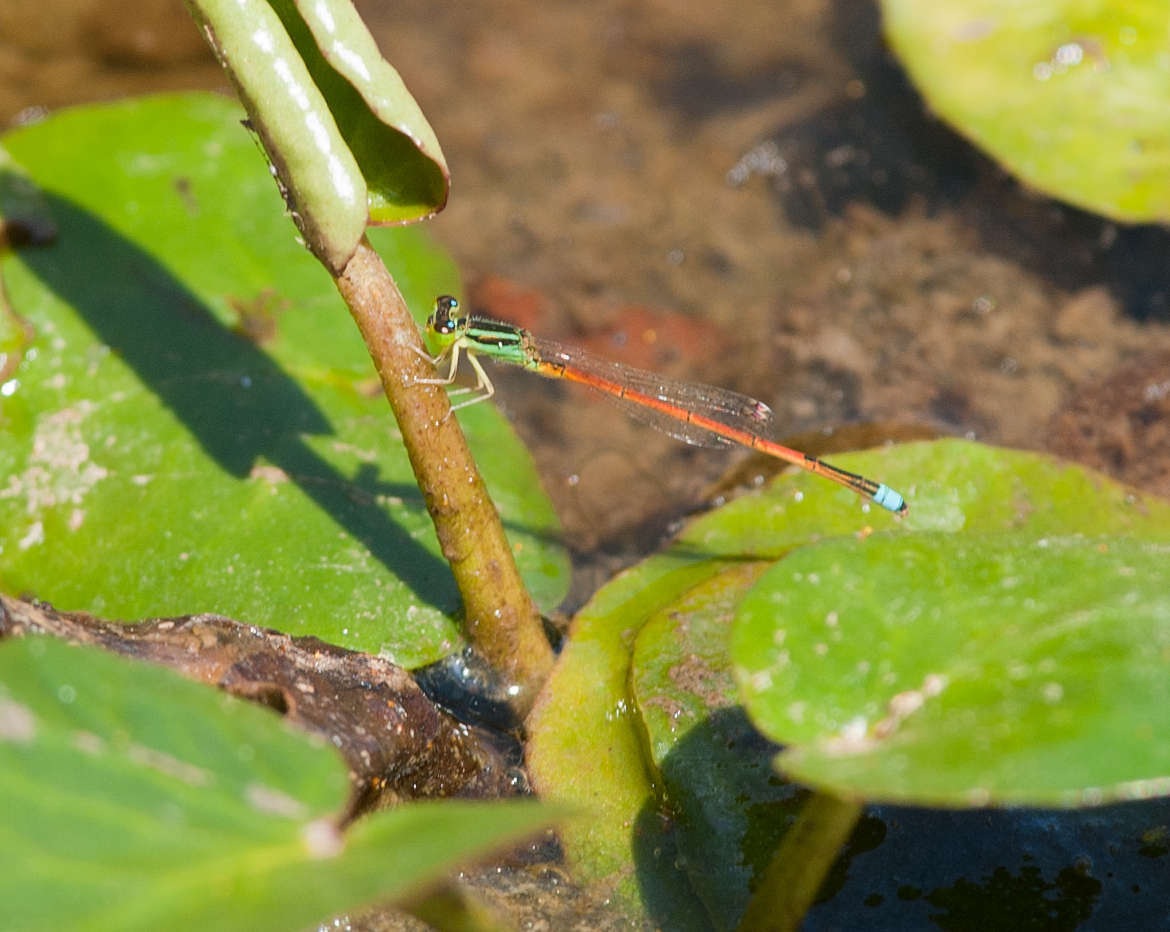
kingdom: Animalia
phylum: Arthropoda
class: Insecta
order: Odonata
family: Coenagrionidae
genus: Ischnura
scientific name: Ischnura aurora
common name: Gossamer damselfly
